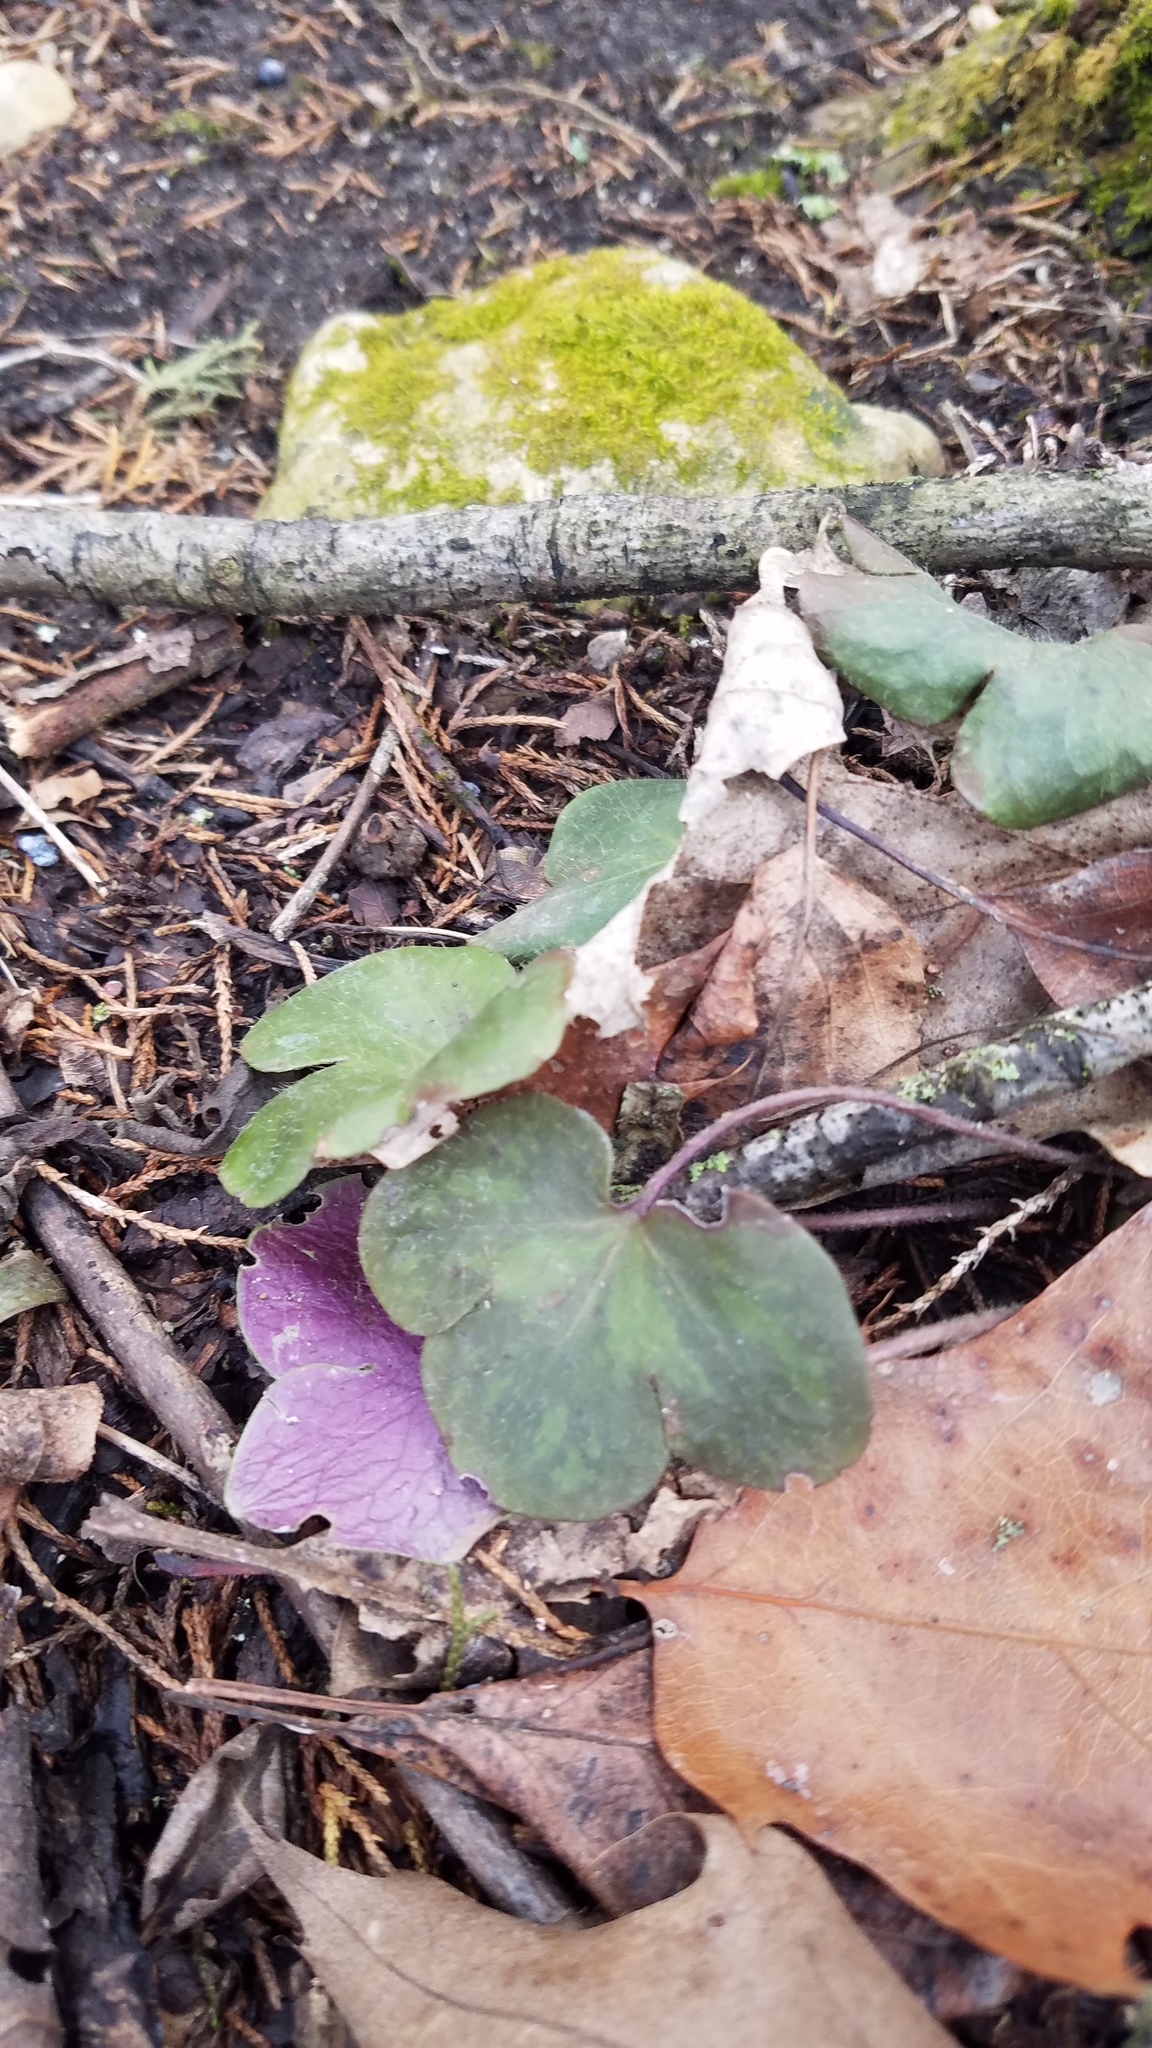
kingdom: Plantae
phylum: Tracheophyta
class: Magnoliopsida
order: Ranunculales
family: Ranunculaceae
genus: Hepatica
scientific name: Hepatica americana
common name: American hepatica
